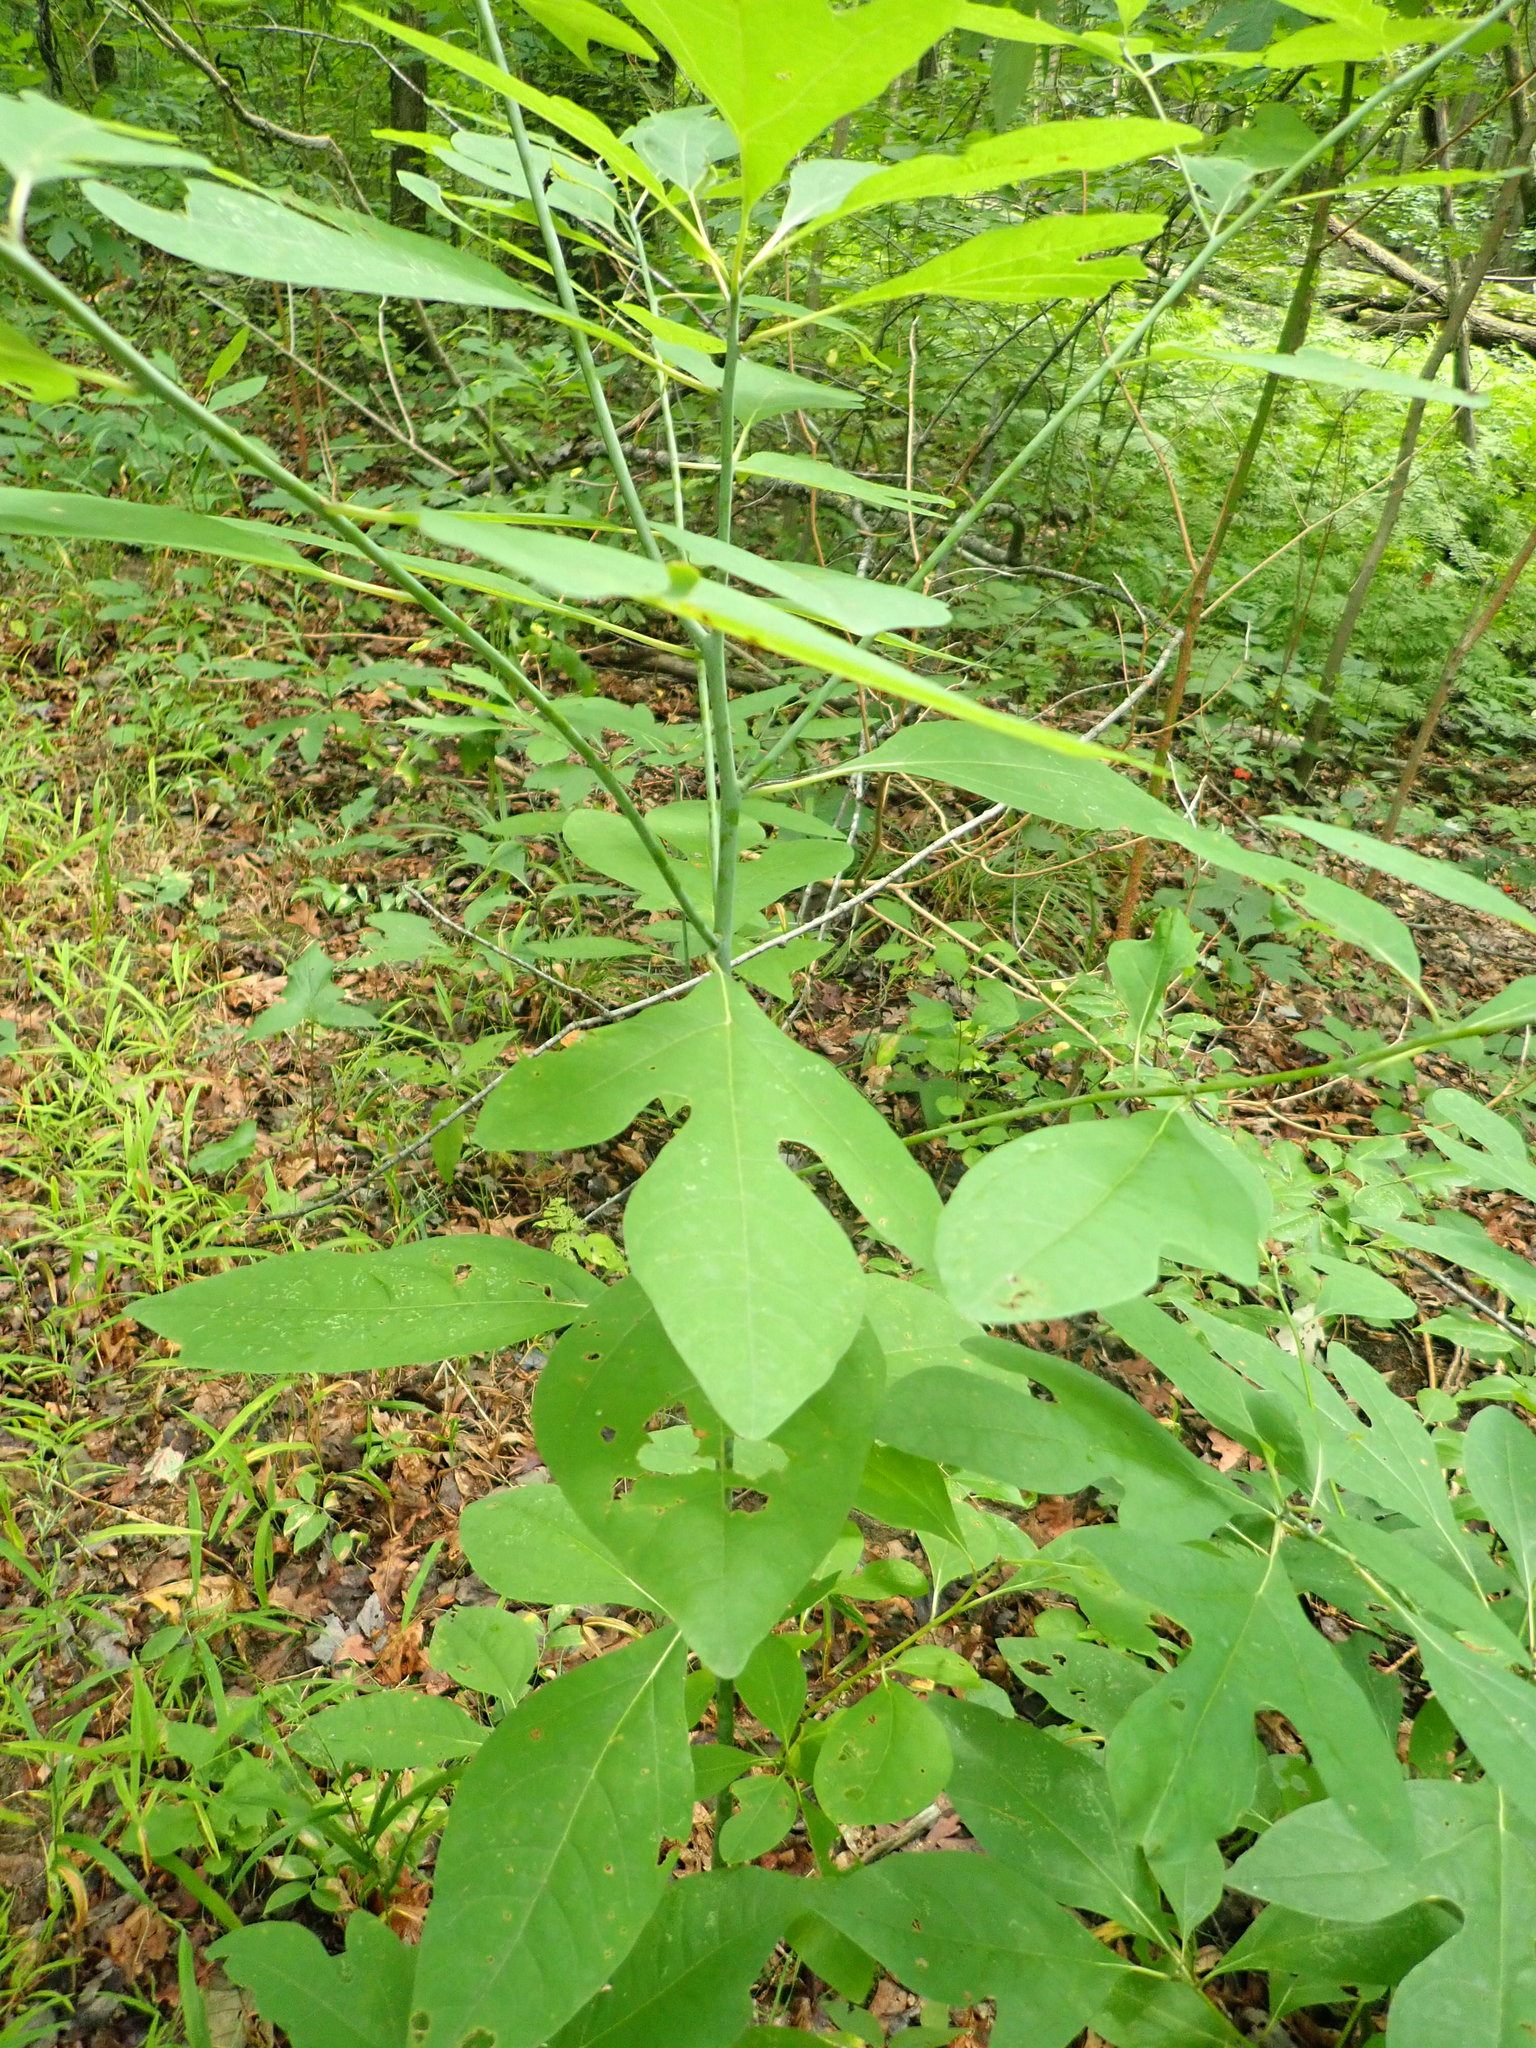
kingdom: Plantae
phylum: Tracheophyta
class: Magnoliopsida
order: Laurales
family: Lauraceae
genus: Sassafras
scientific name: Sassafras albidum
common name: Sassafras
